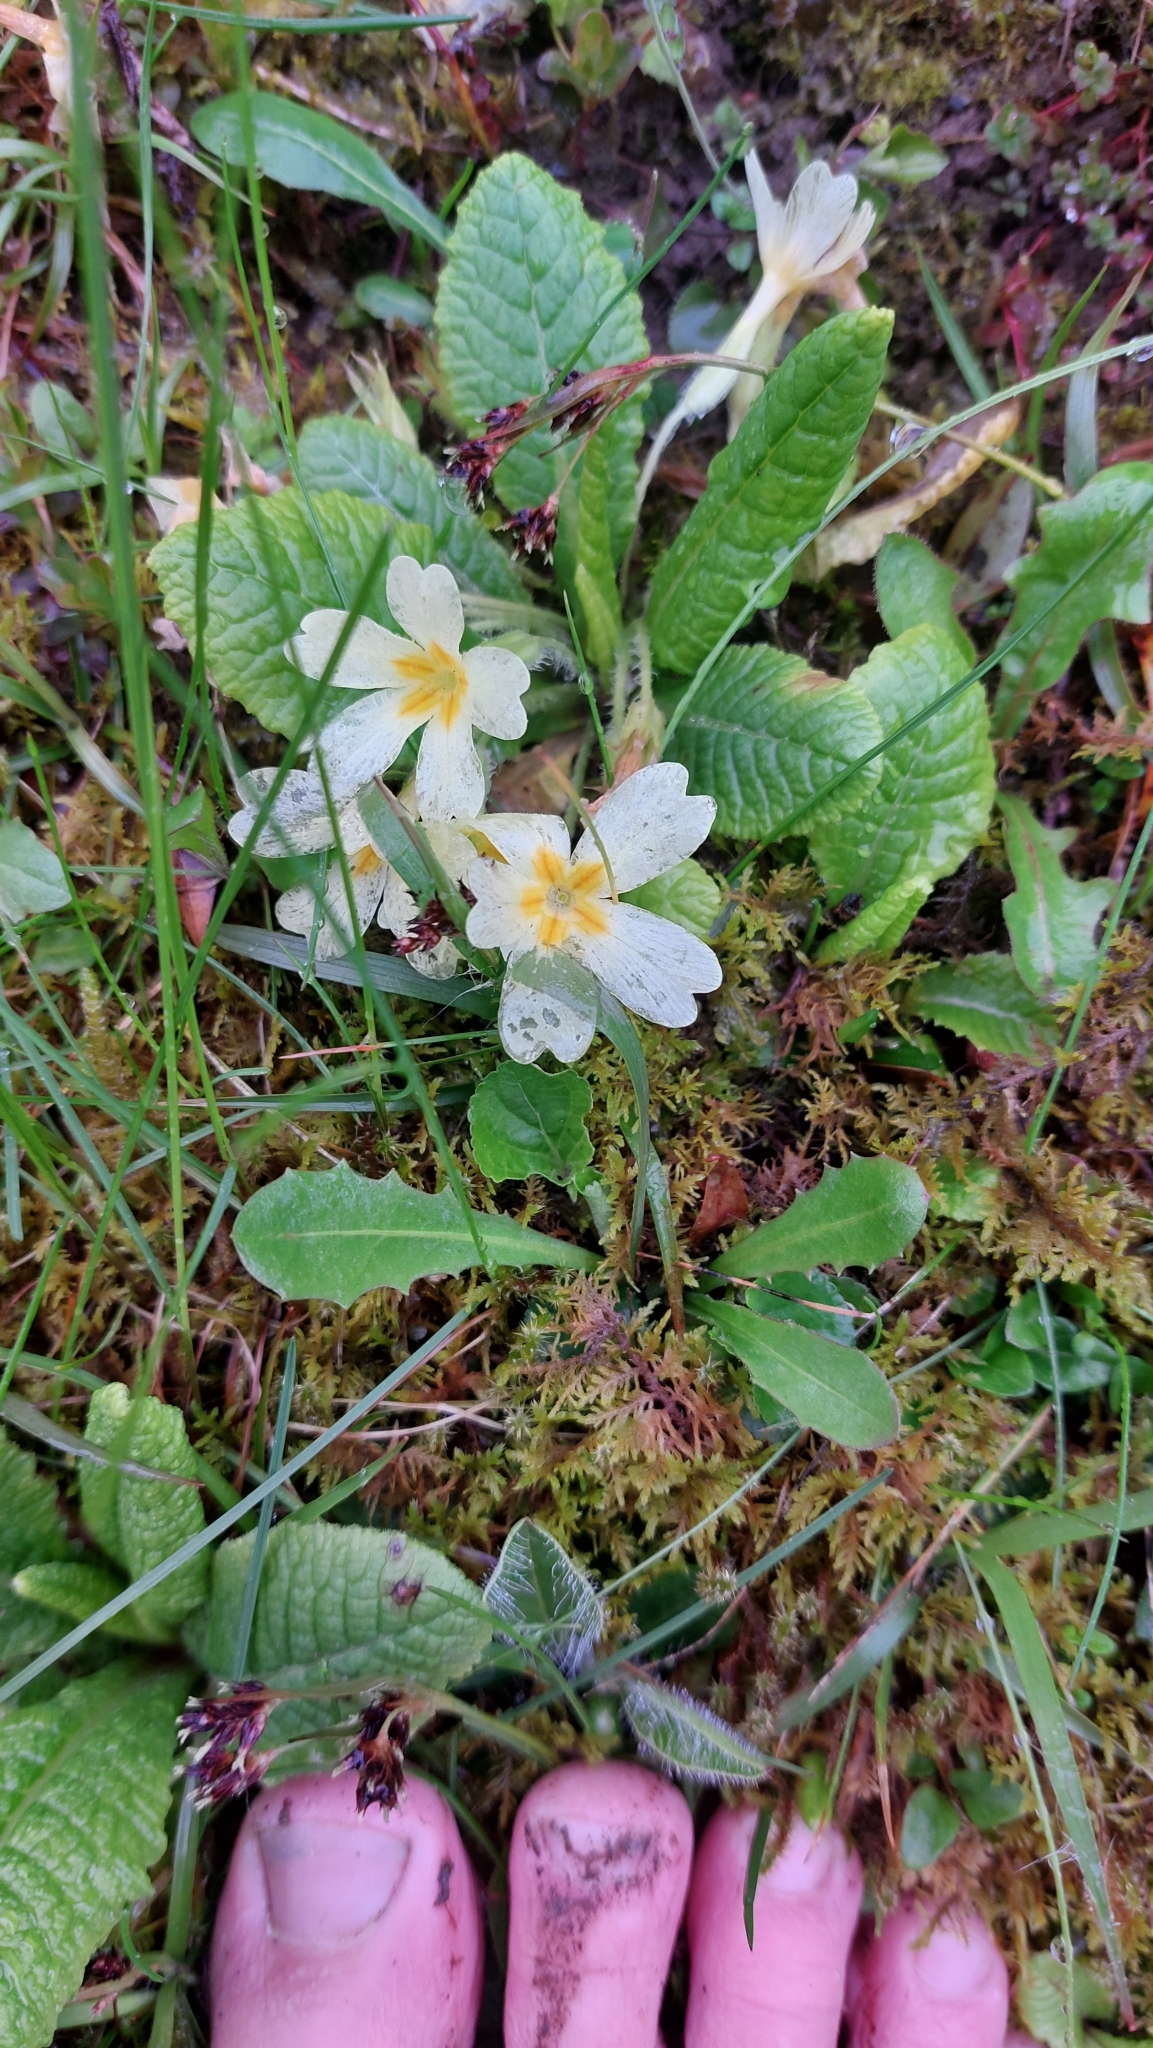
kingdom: Plantae
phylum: Tracheophyta
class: Magnoliopsida
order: Ericales
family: Primulaceae
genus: Primula
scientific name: Primula vulgaris
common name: Primrose
